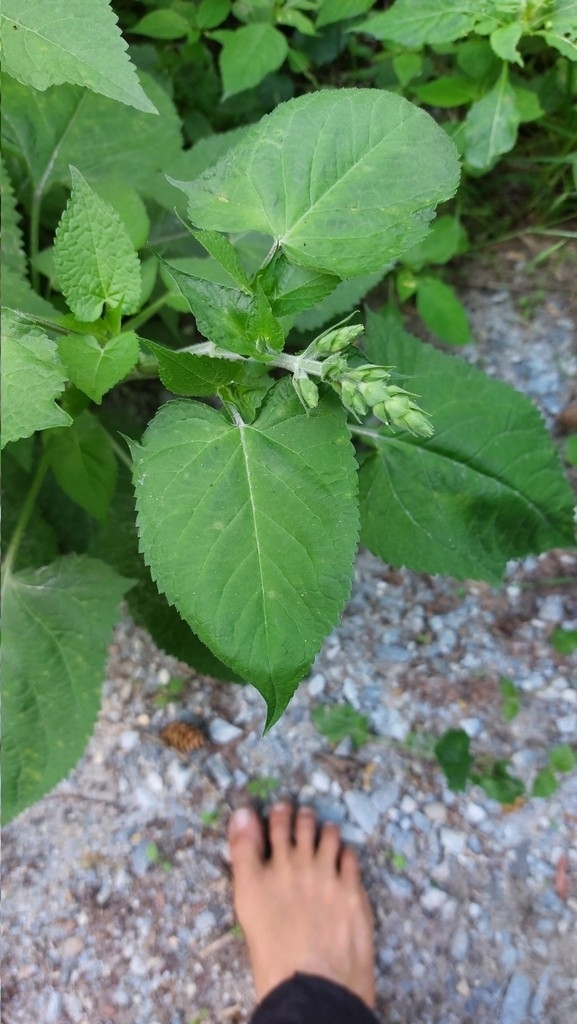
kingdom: Plantae
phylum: Tracheophyta
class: Magnoliopsida
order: Lamiales
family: Lamiaceae
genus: Salvia
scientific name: Salvia glutinosa
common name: Sticky clary
